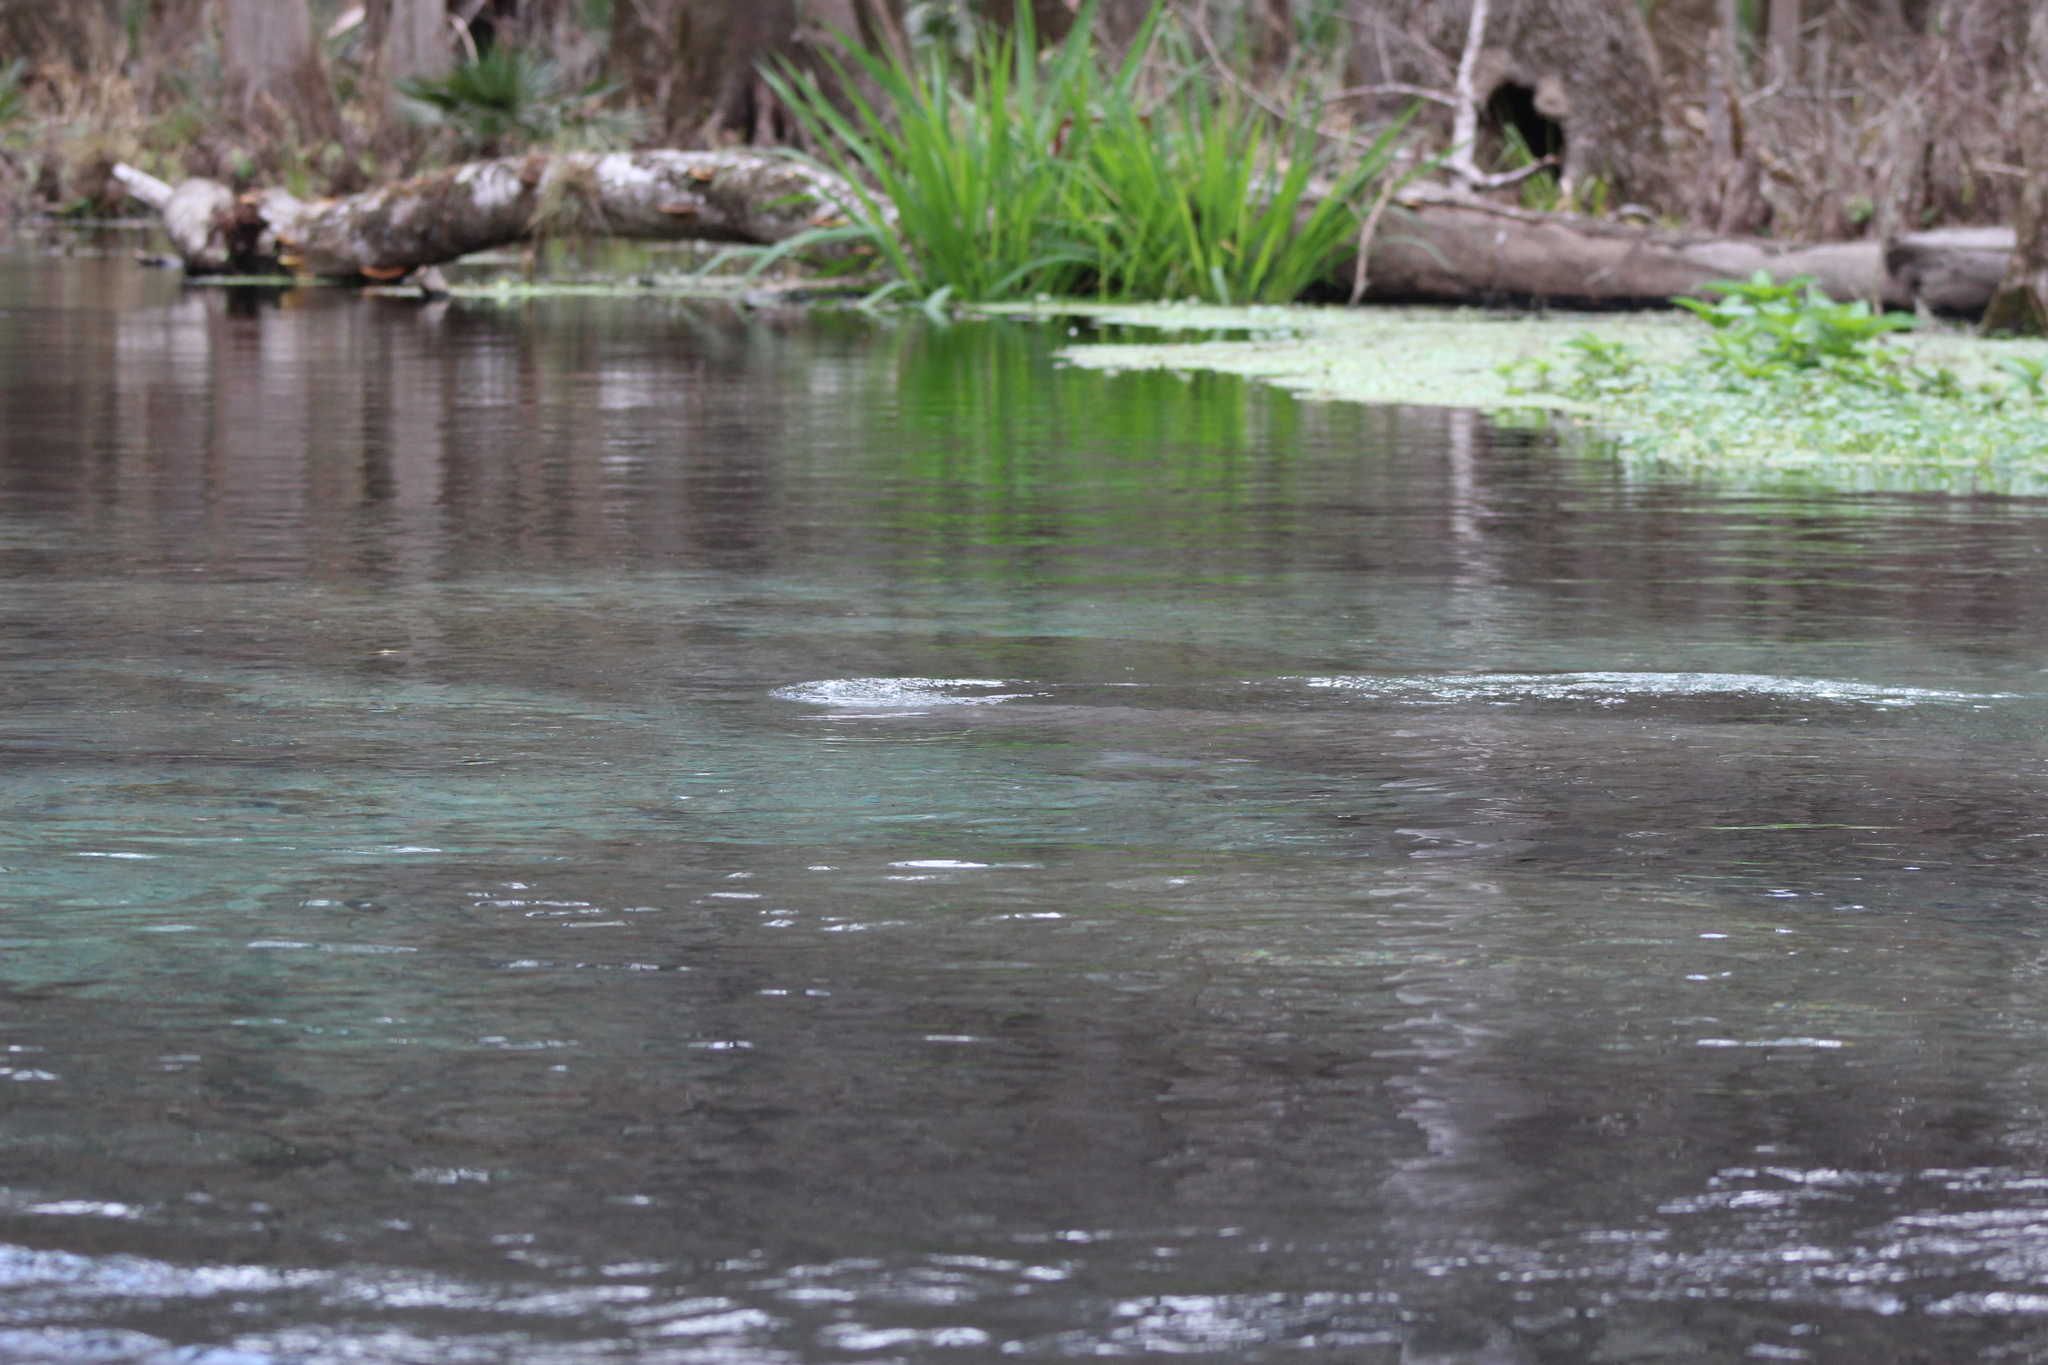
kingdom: Animalia
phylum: Chordata
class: Mammalia
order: Sirenia
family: Trichechidae
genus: Trichechus
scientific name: Trichechus manatus
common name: West indian manatee
